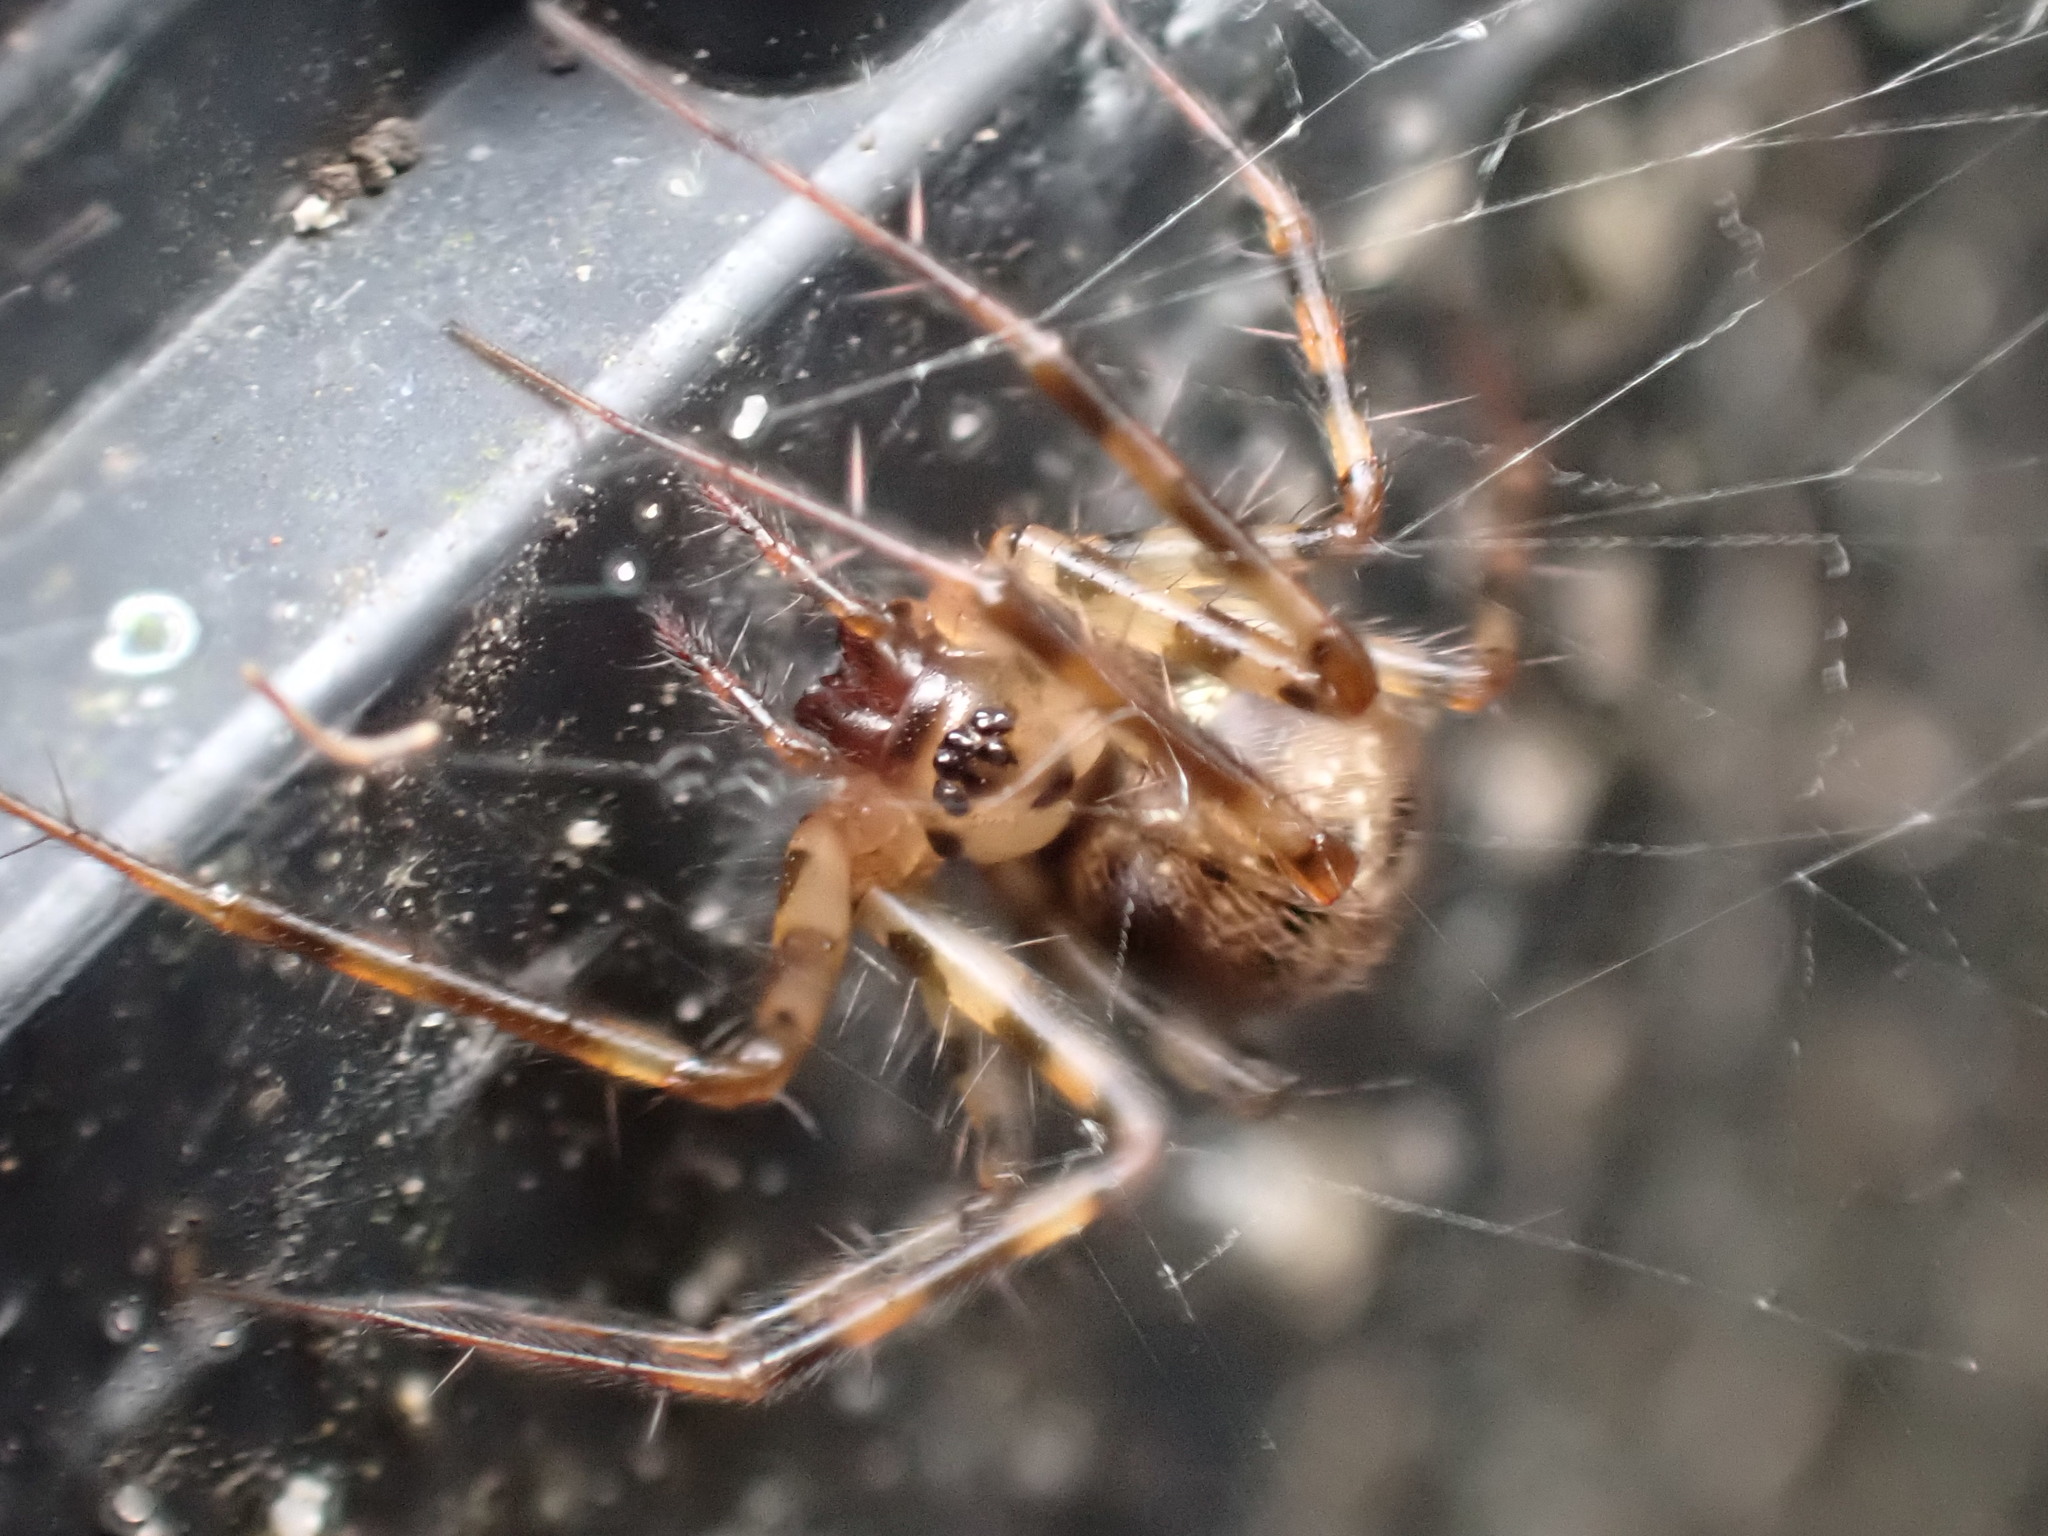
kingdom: Animalia
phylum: Arthropoda
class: Arachnida
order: Araneae
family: Linyphiidae
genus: Labulla
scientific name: Labulla thoracica
